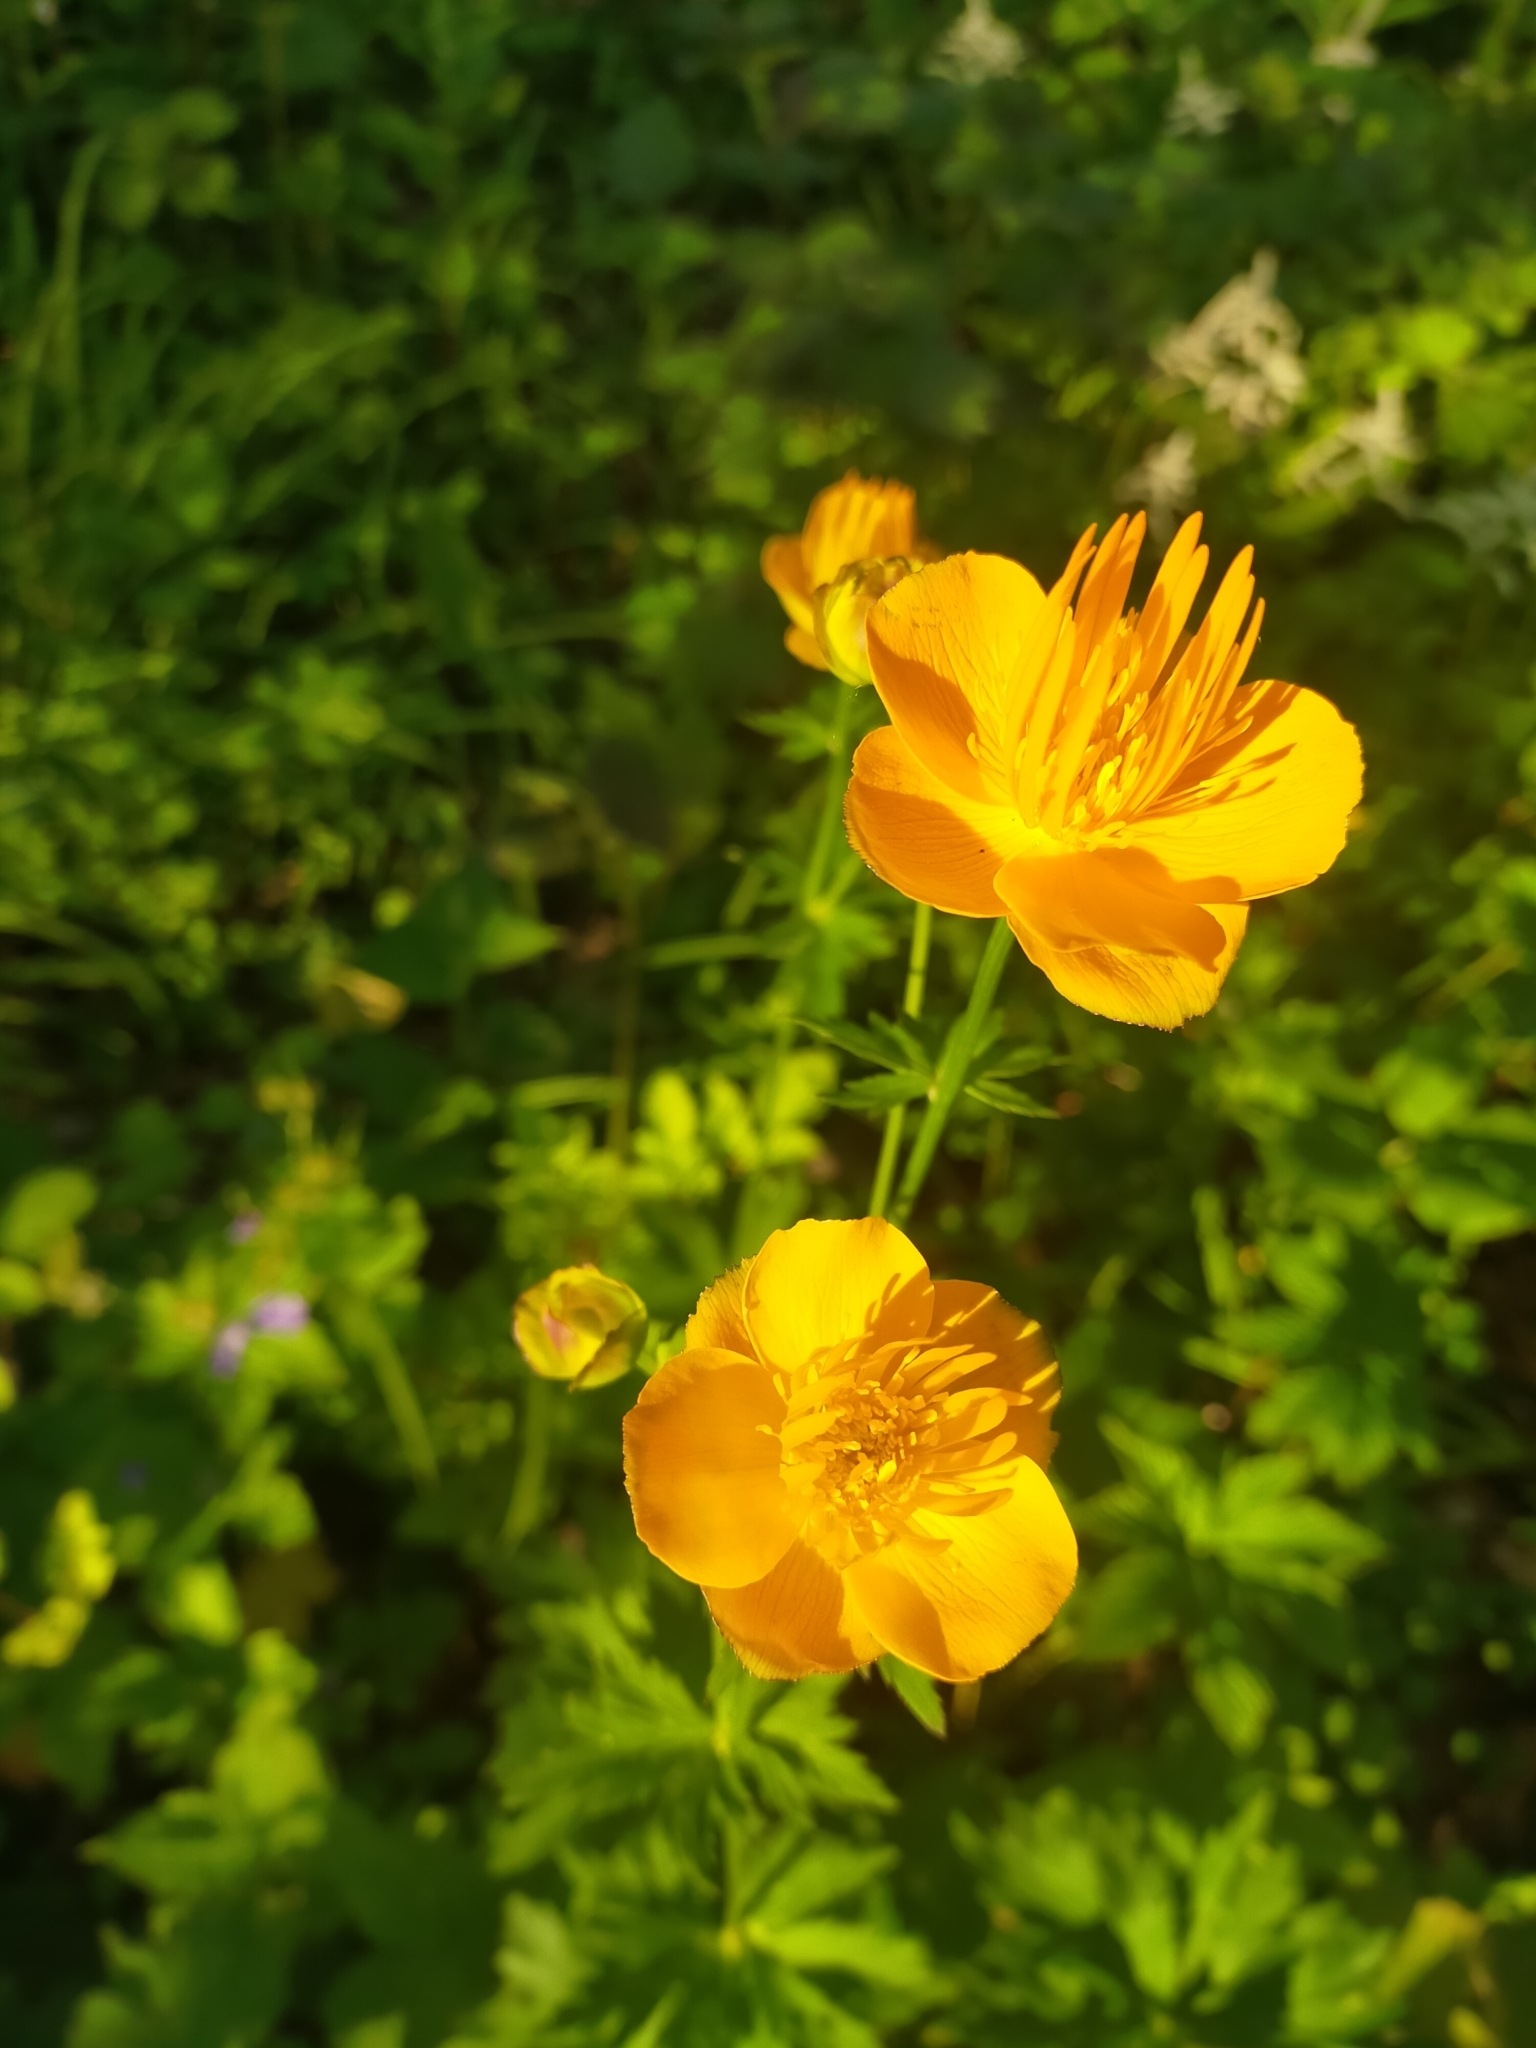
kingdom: Plantae
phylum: Tracheophyta
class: Magnoliopsida
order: Ranunculales
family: Ranunculaceae
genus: Trollius
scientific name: Trollius chinensis
